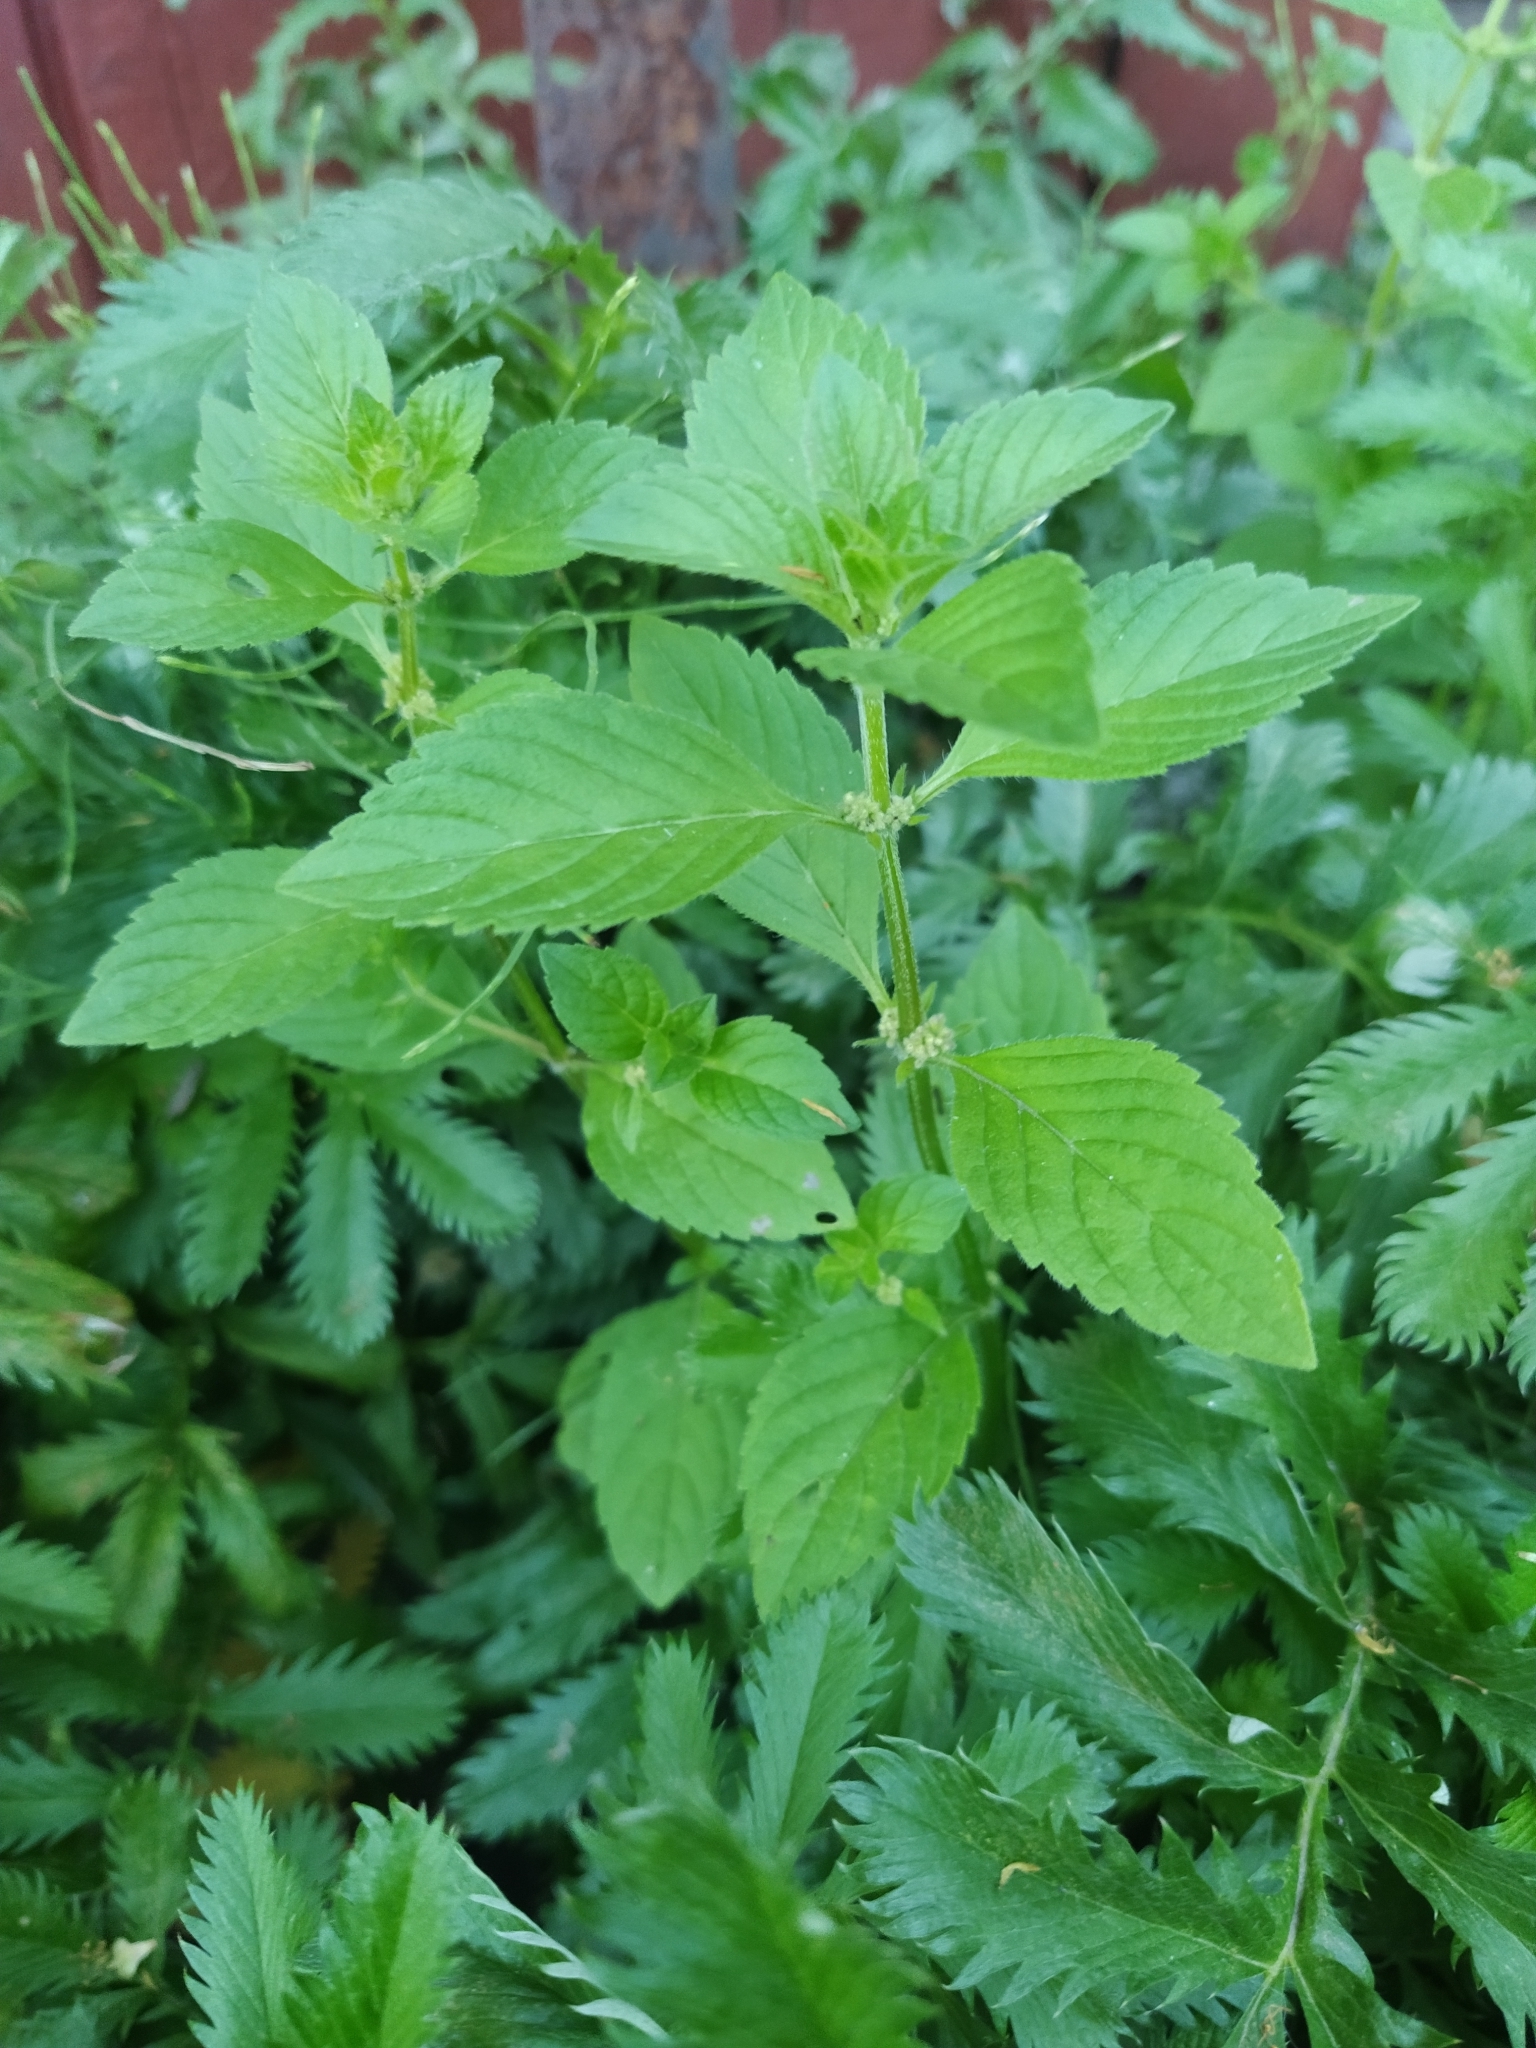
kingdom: Plantae
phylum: Tracheophyta
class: Magnoliopsida
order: Lamiales
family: Lamiaceae
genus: Mentha
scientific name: Mentha arvensis
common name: Corn mint
